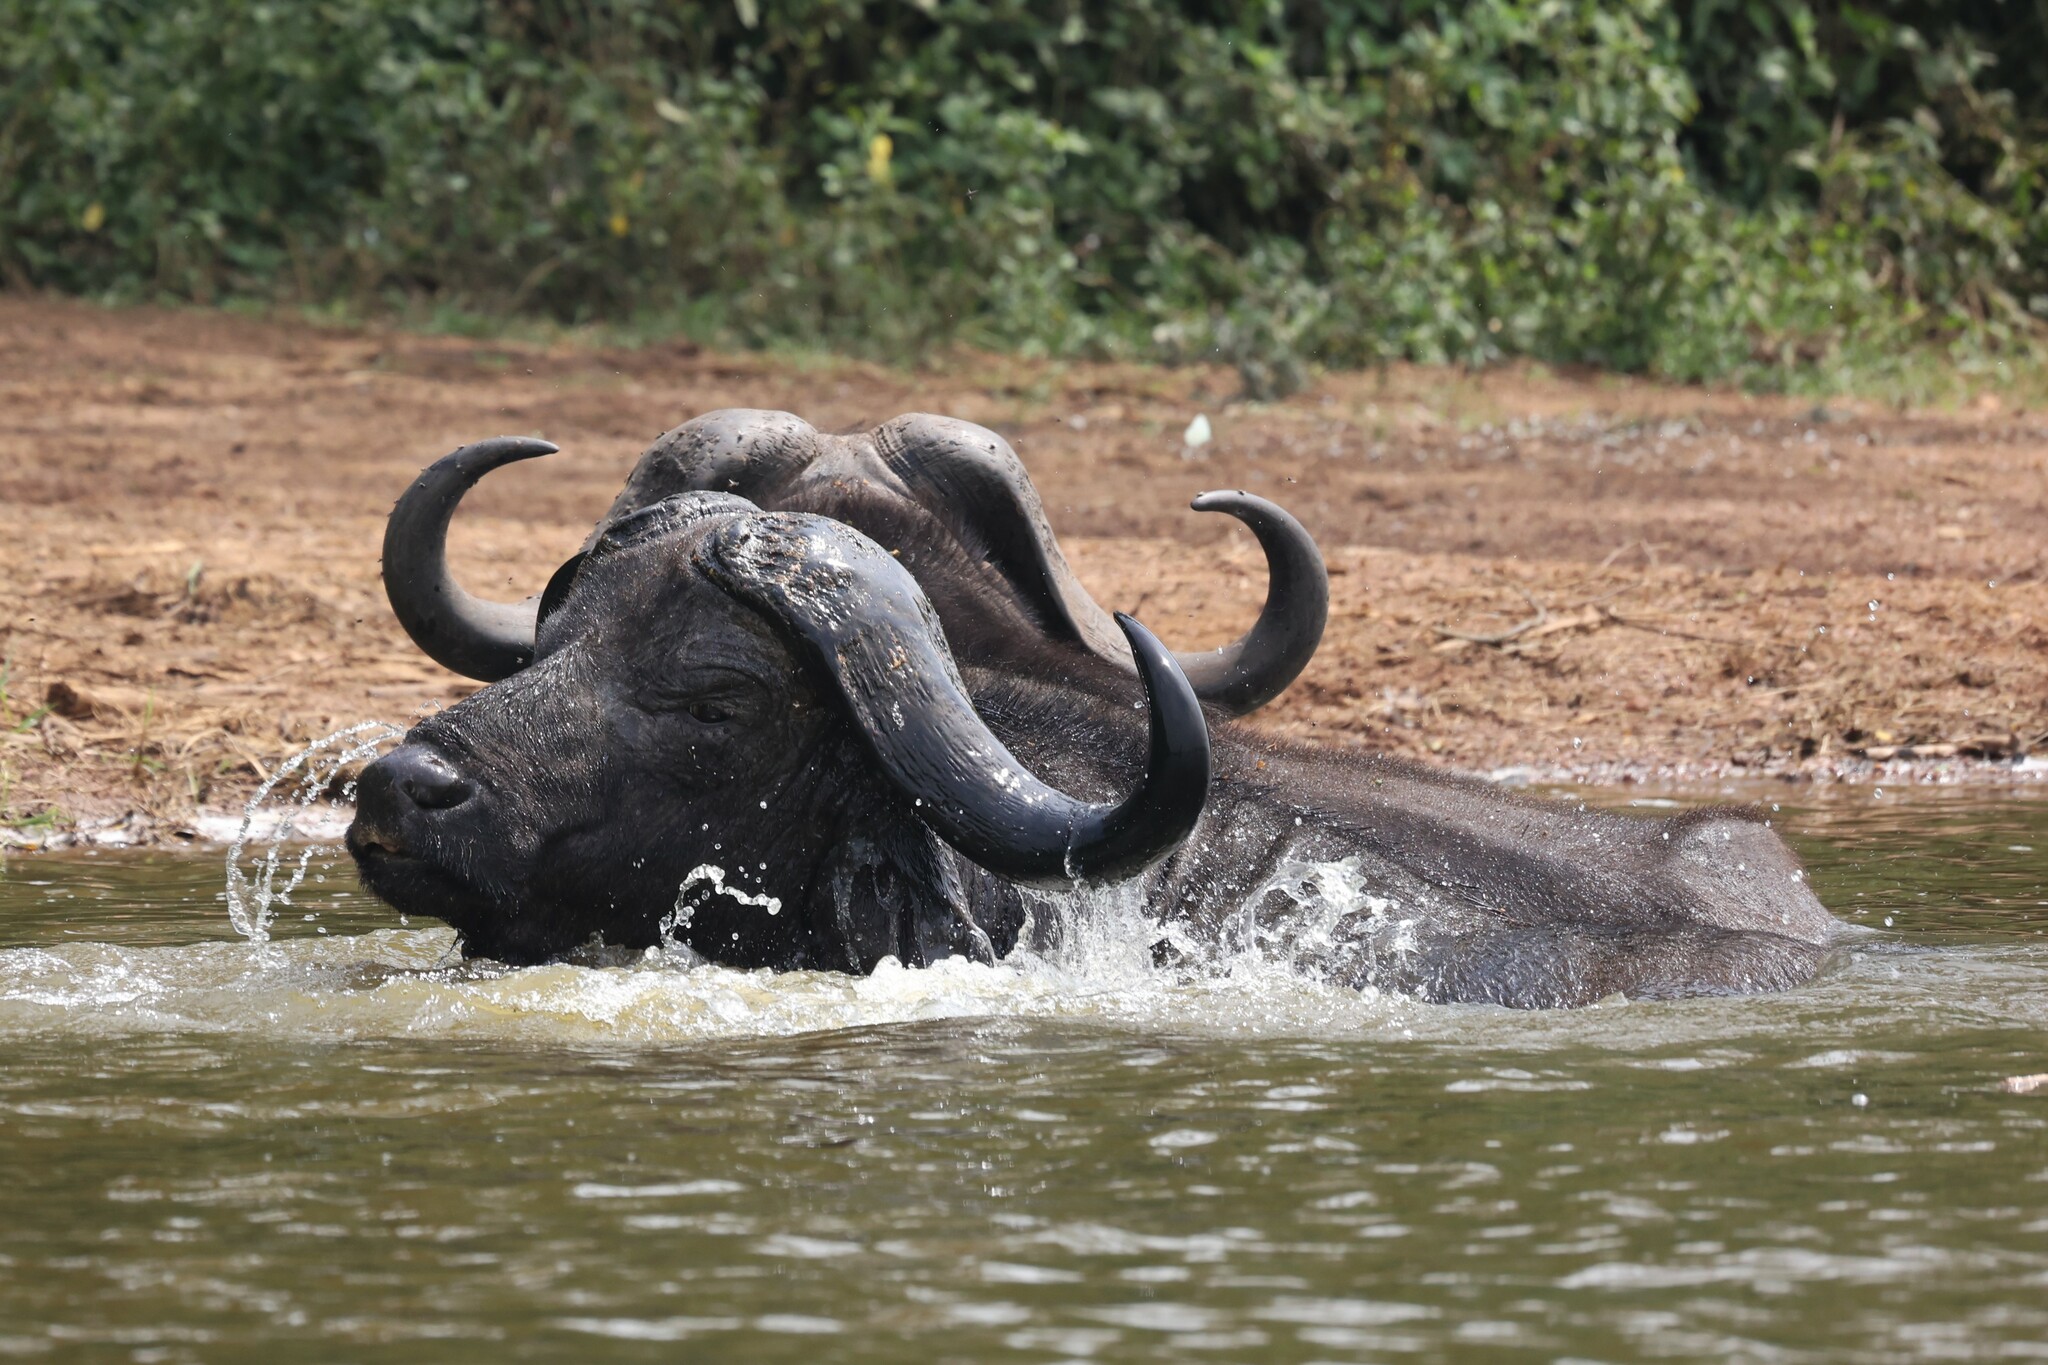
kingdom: Animalia
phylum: Chordata
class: Mammalia
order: Artiodactyla
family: Bovidae
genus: Syncerus
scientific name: Syncerus caffer
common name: African buffalo
